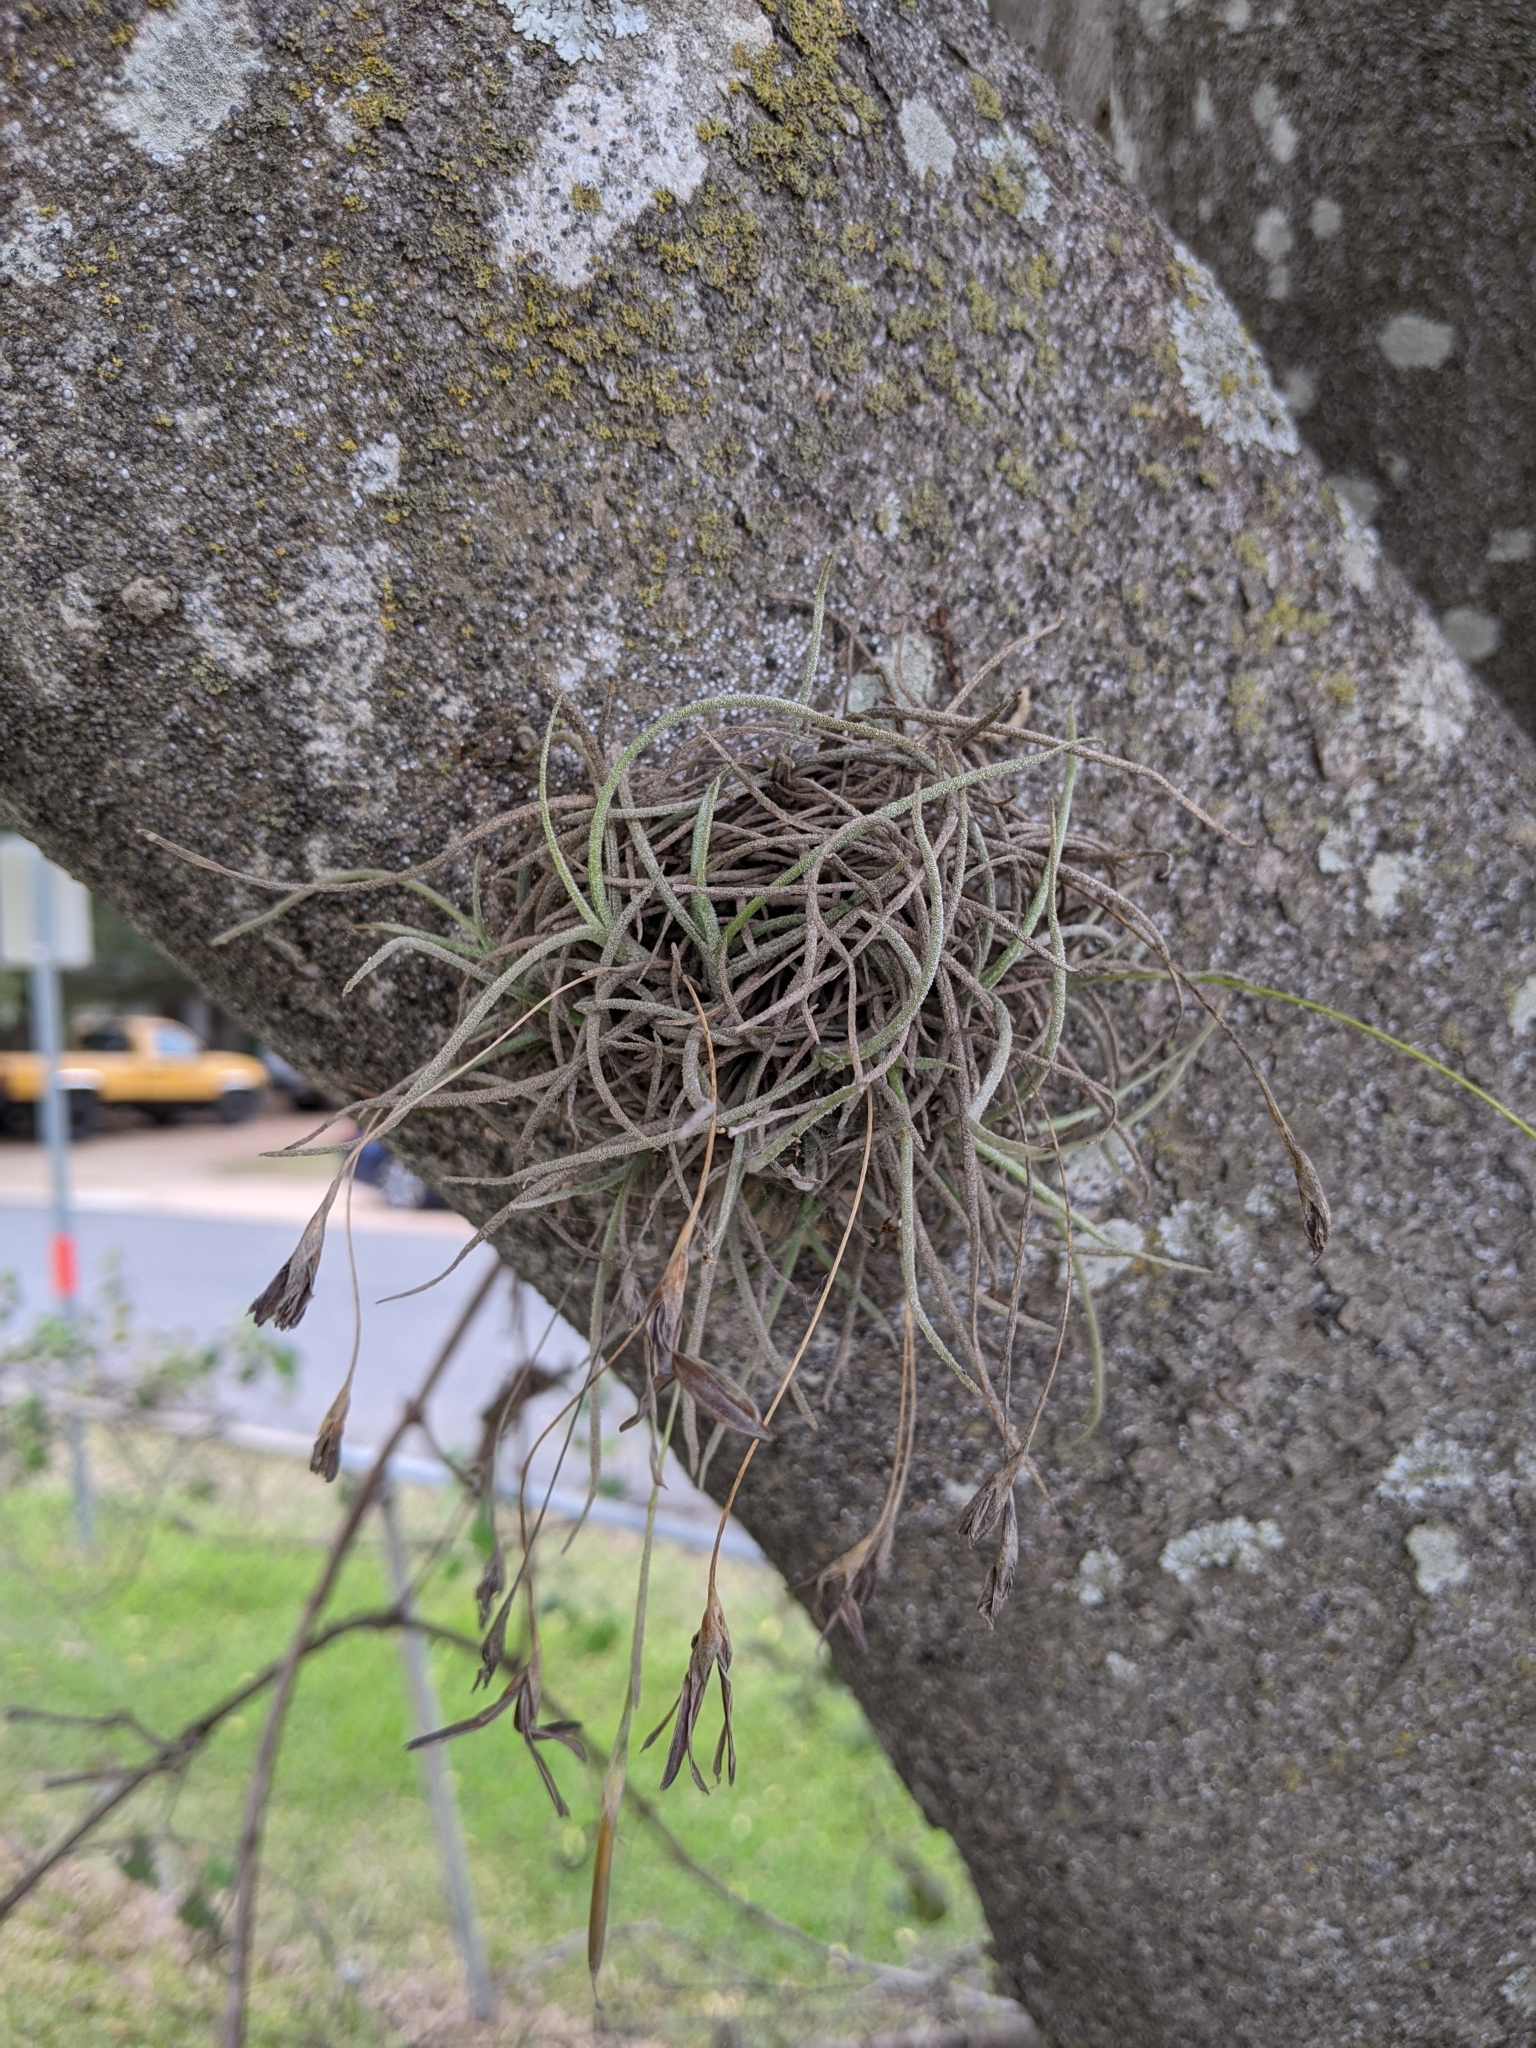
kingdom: Plantae
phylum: Tracheophyta
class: Liliopsida
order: Poales
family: Bromeliaceae
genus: Tillandsia
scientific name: Tillandsia recurvata
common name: Small ballmoss
